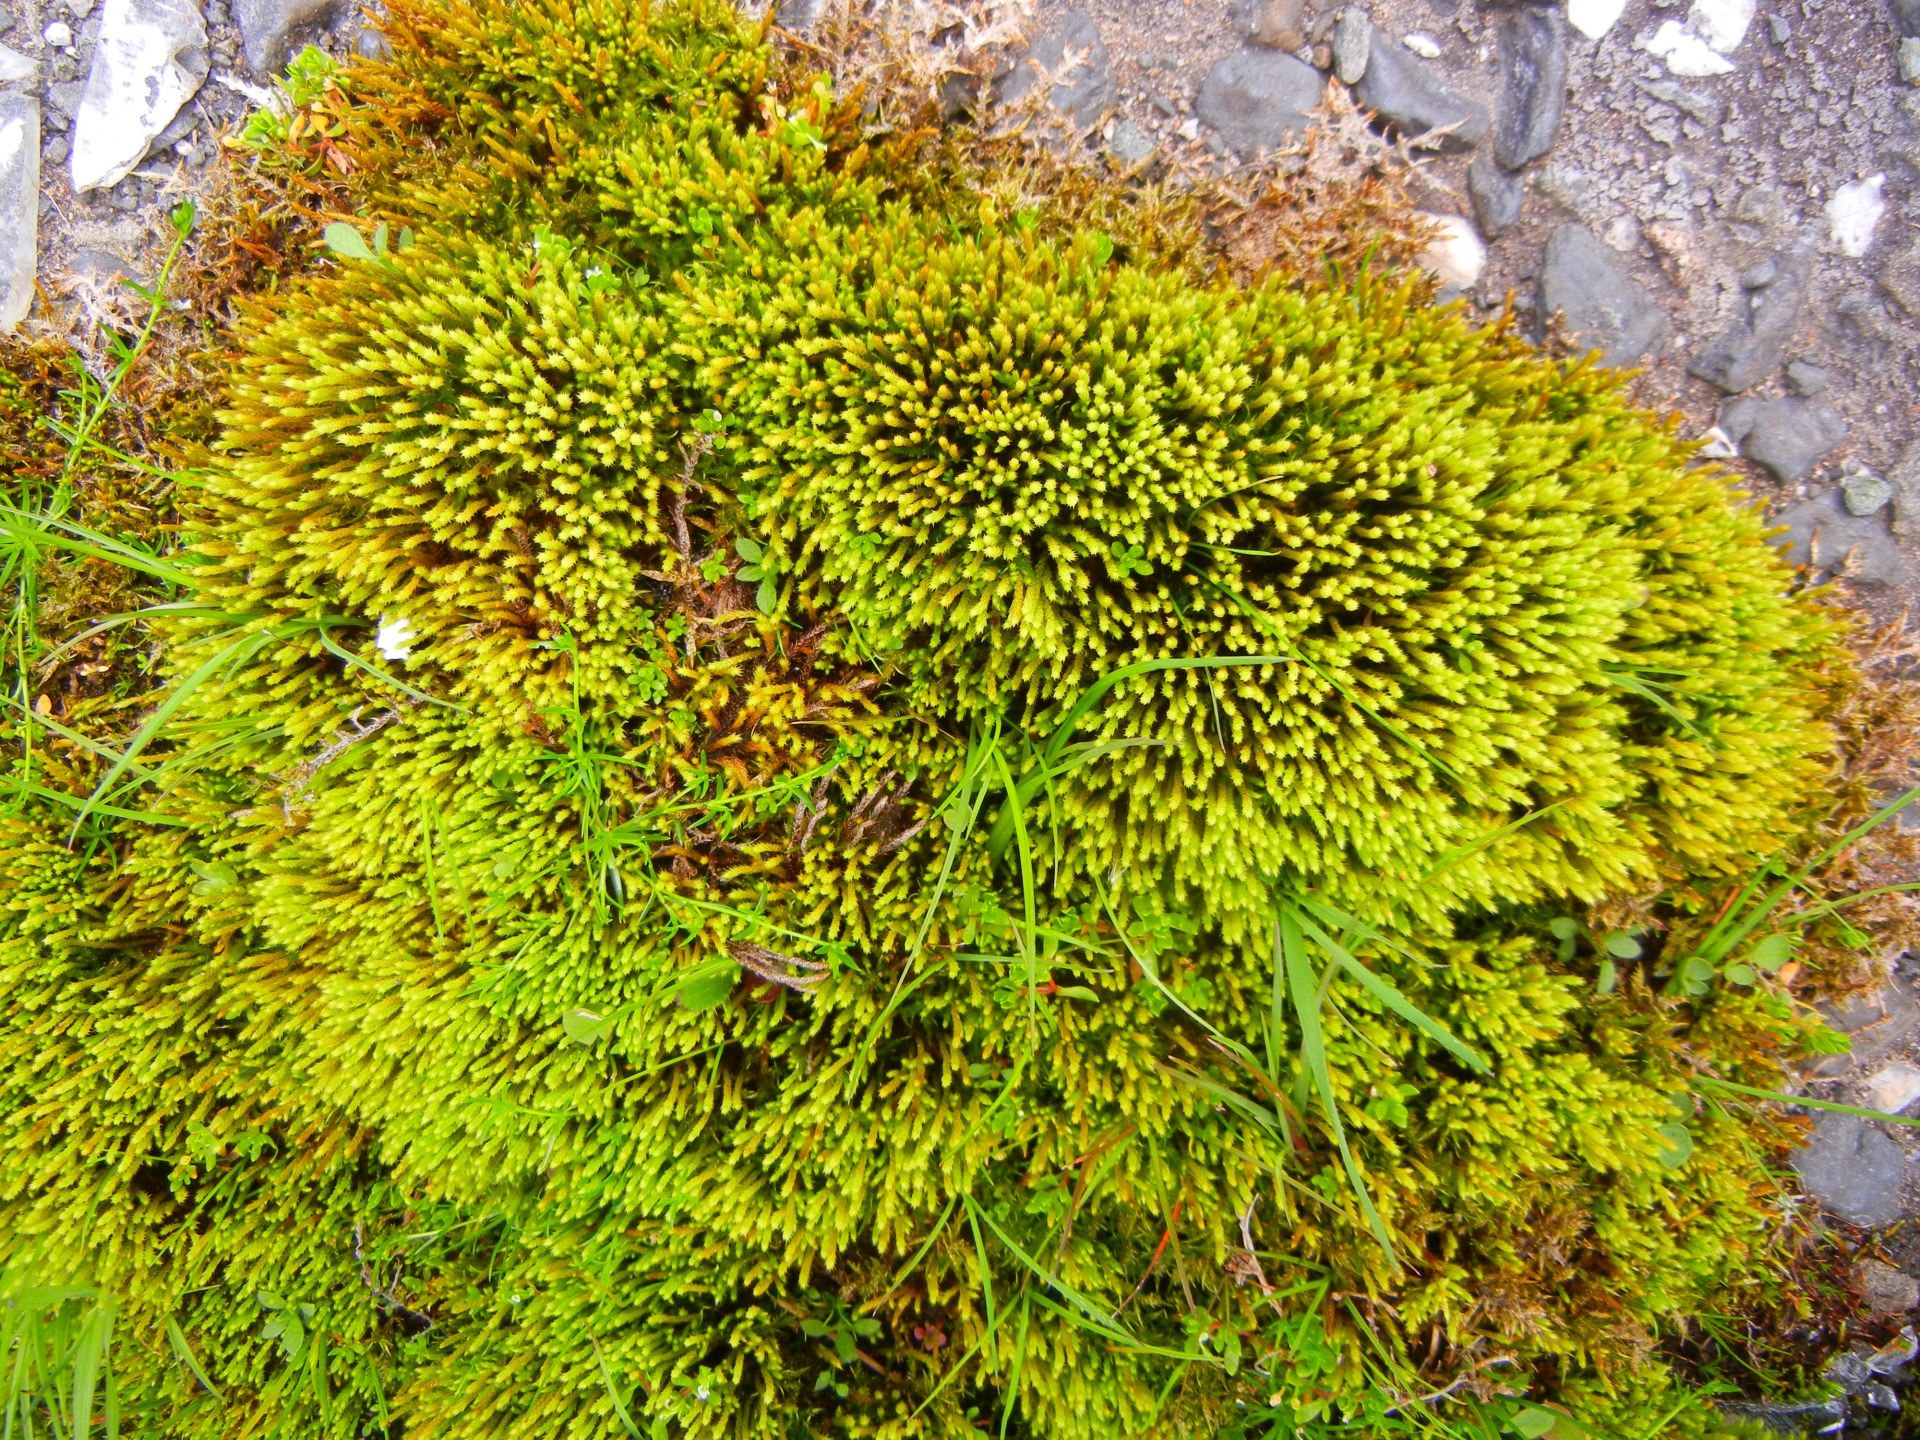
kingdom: Plantae
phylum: Bryophyta
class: Bryopsida
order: Bartramiales
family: Bartramiaceae
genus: Philonotis
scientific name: Philonotis fontana
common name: Fountain apple-moss
